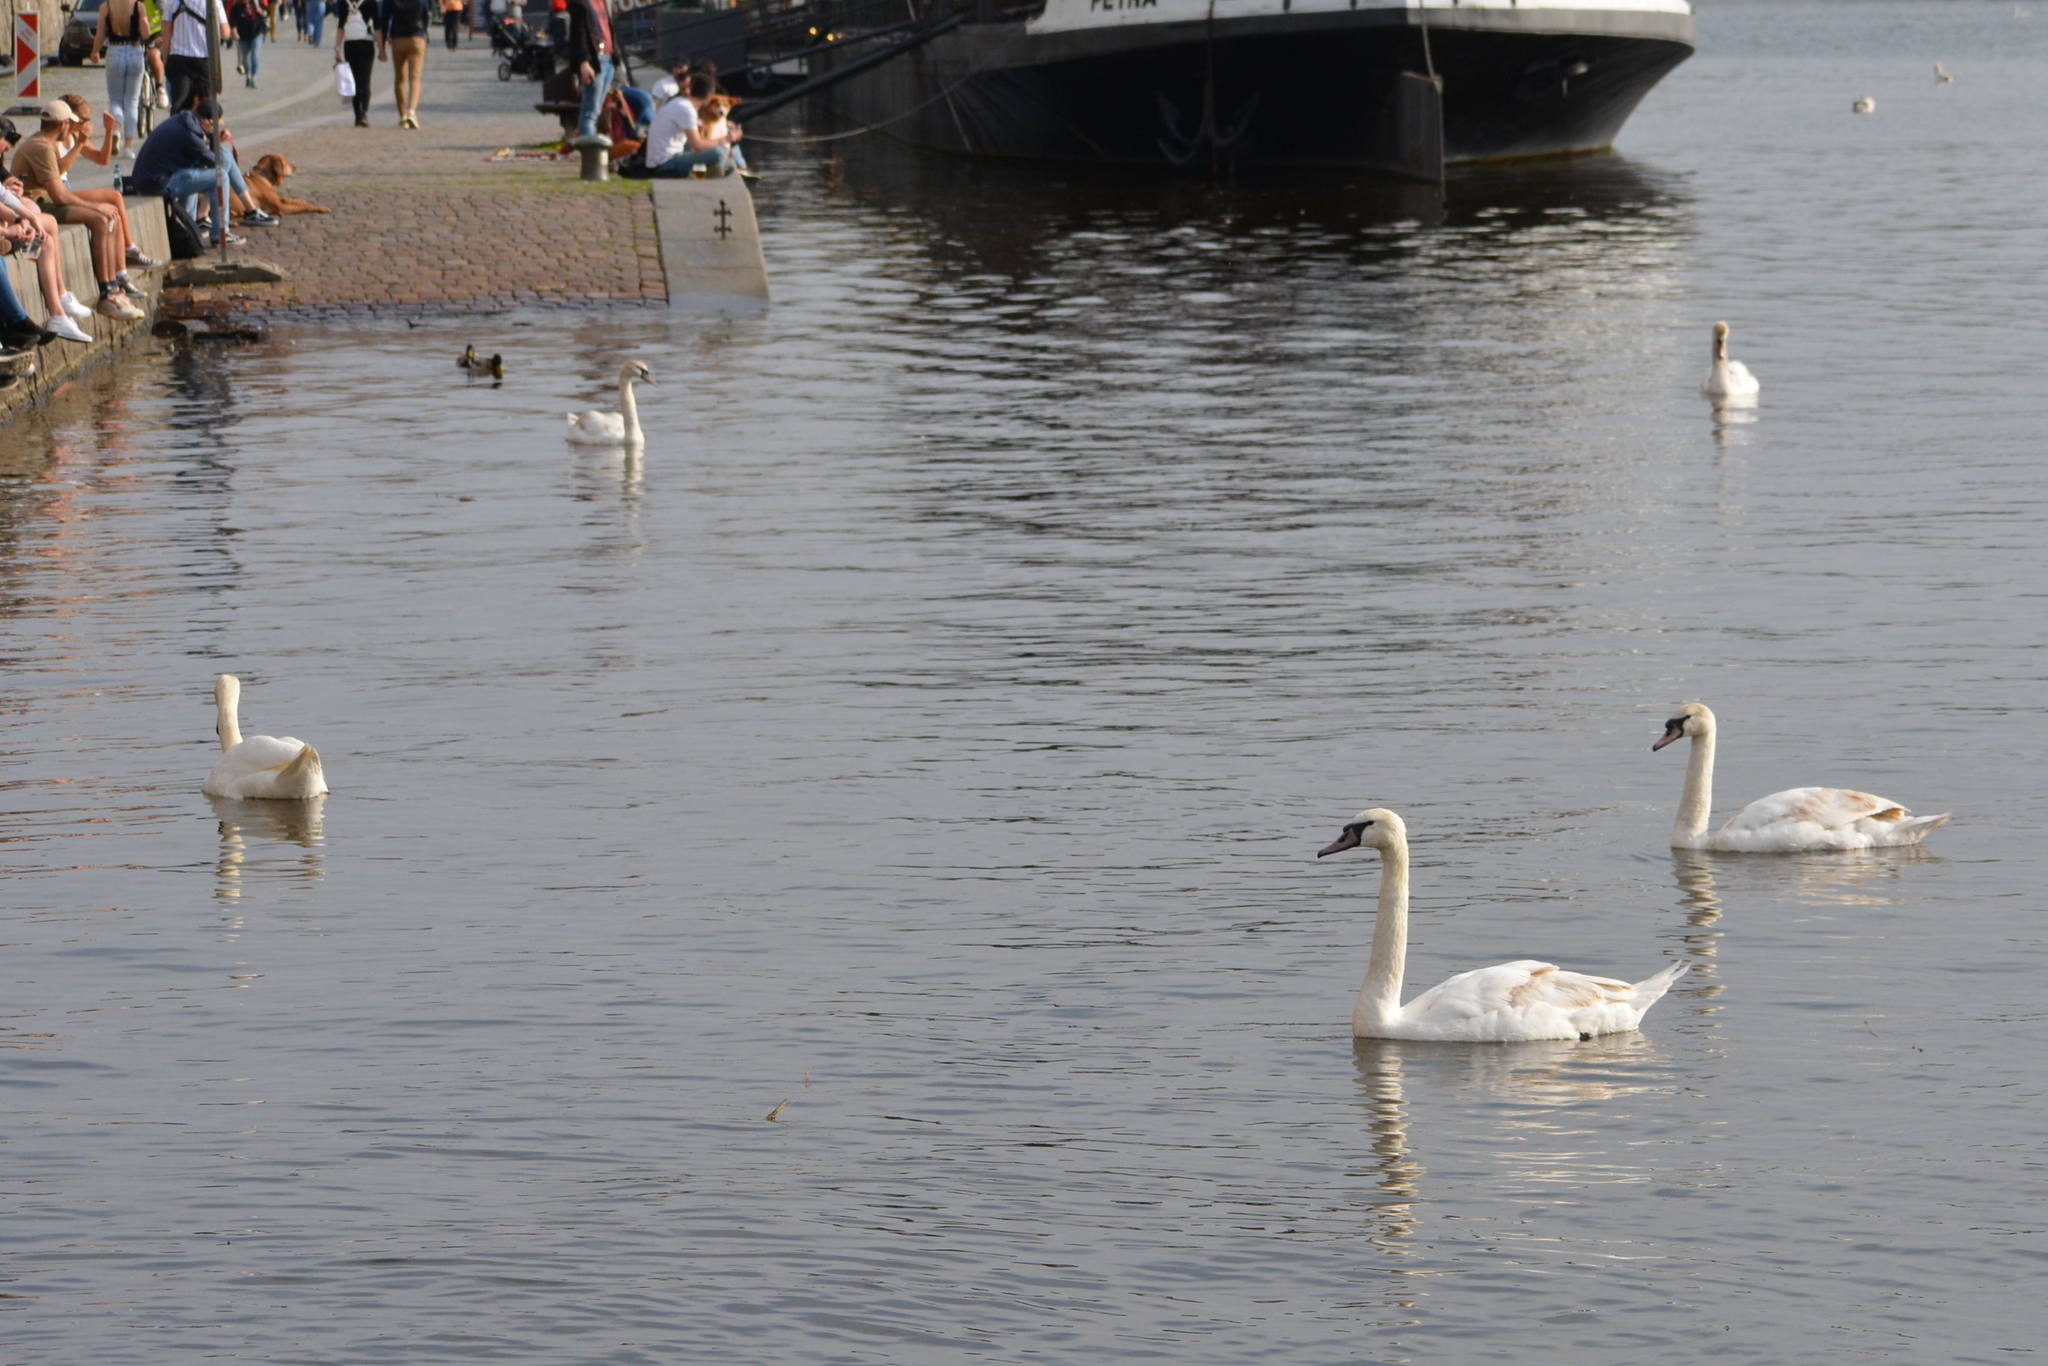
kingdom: Animalia
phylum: Chordata
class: Aves
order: Anseriformes
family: Anatidae
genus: Cygnus
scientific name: Cygnus olor
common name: Mute swan
